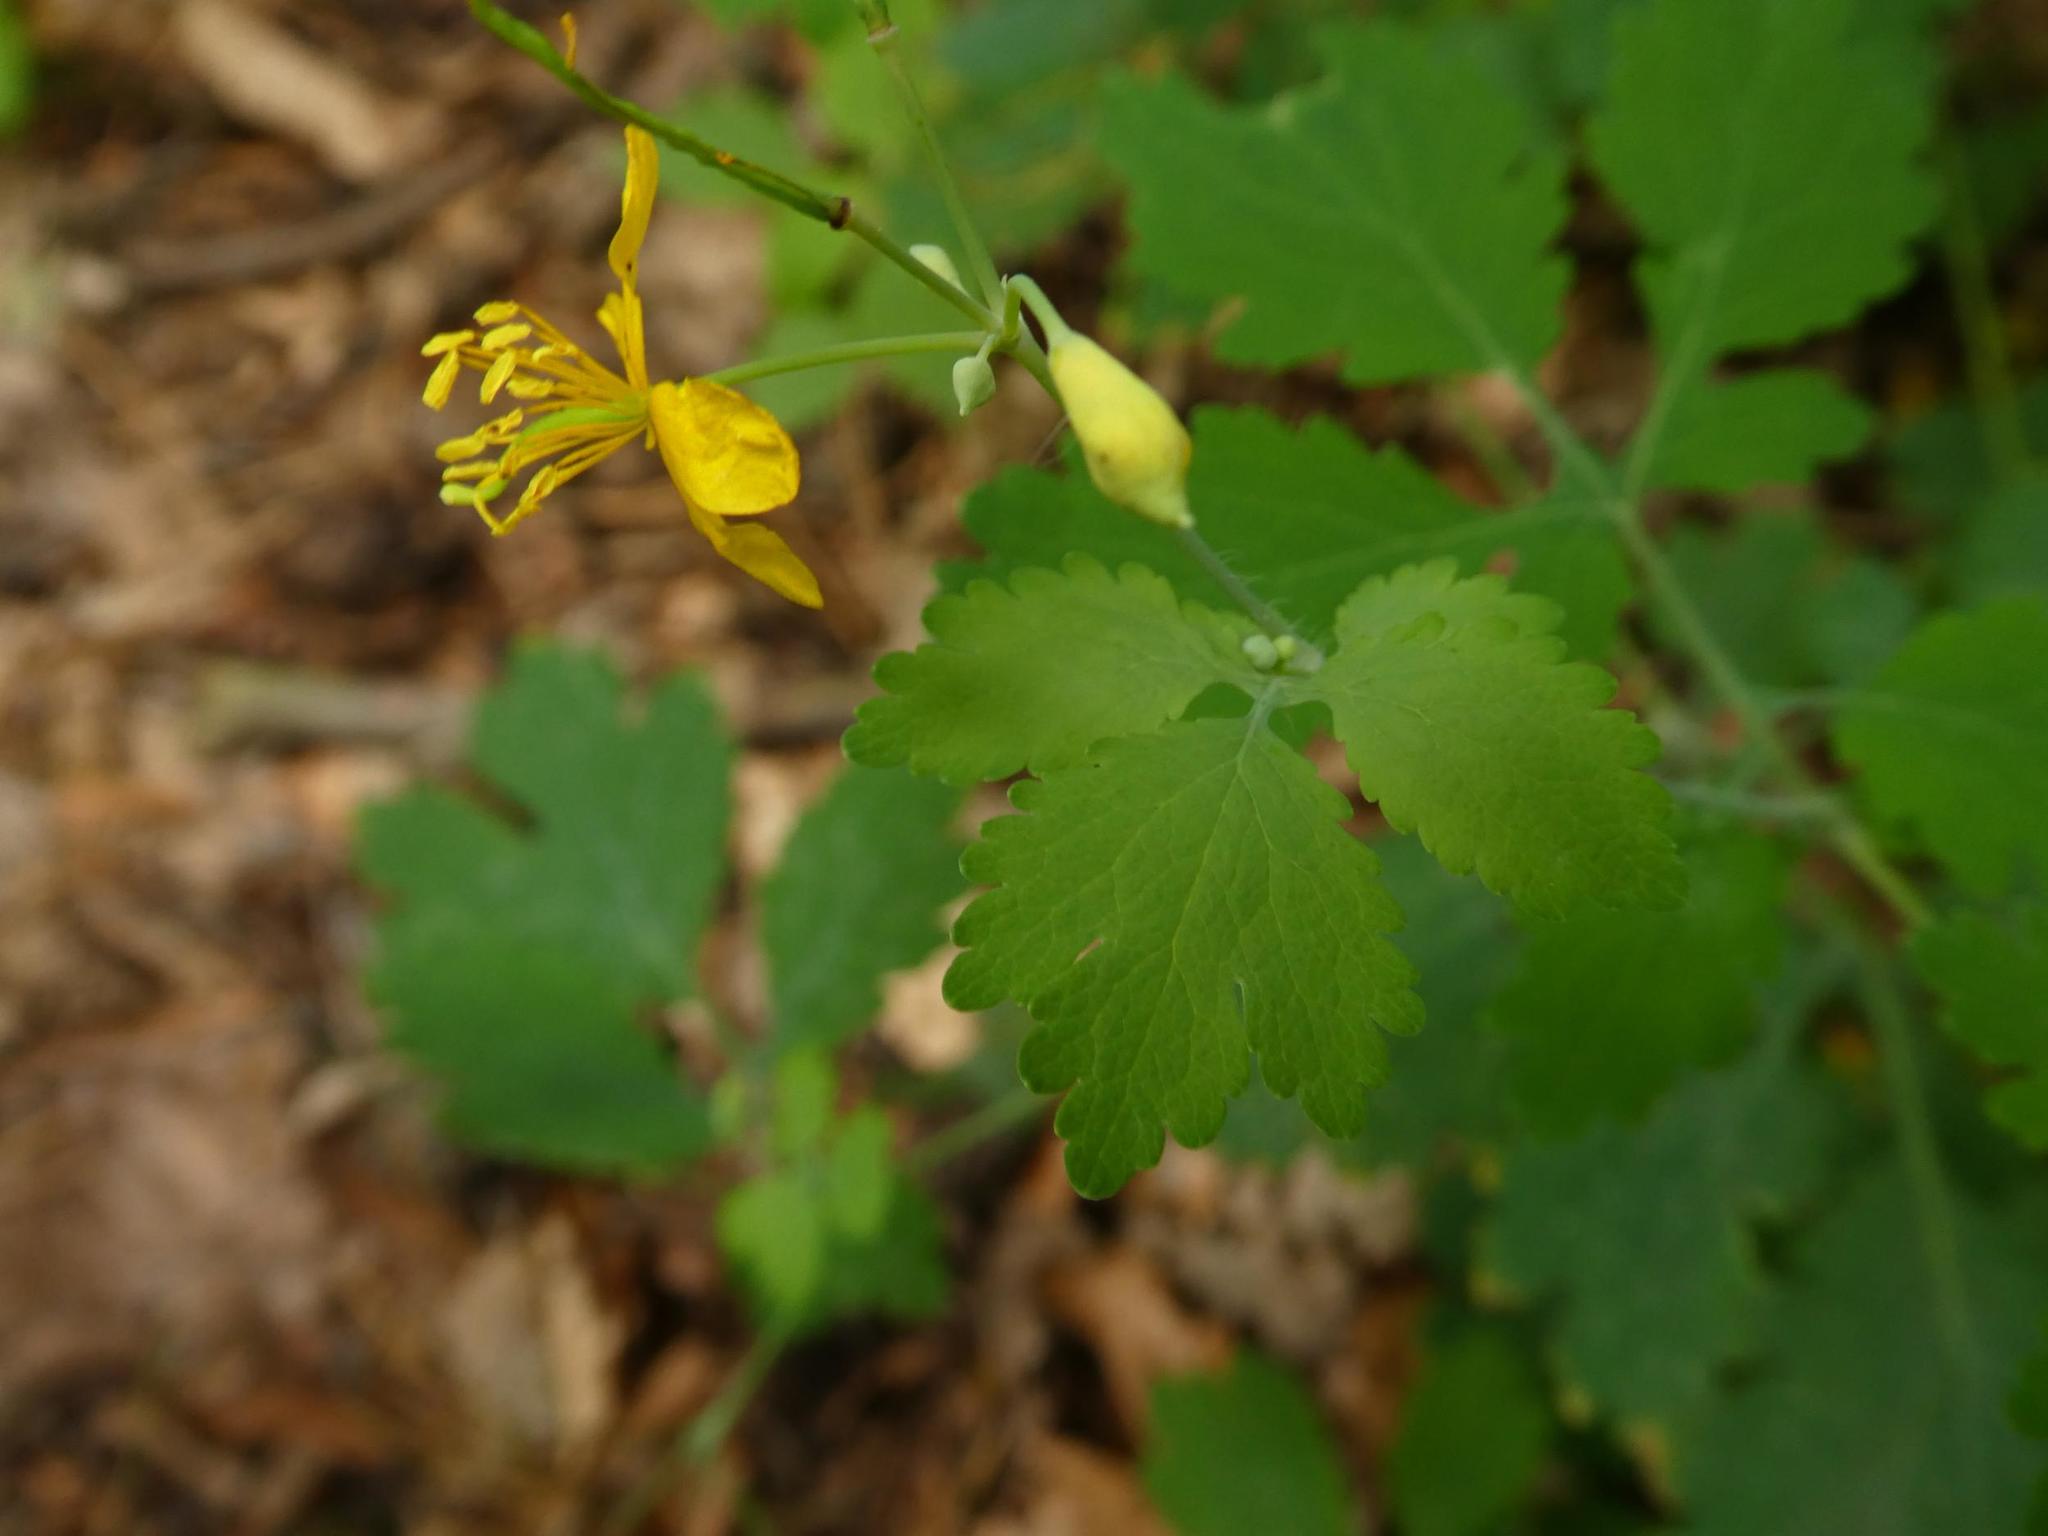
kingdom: Plantae
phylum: Tracheophyta
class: Magnoliopsida
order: Ranunculales
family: Papaveraceae
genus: Chelidonium
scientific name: Chelidonium majus
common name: Greater celandine
